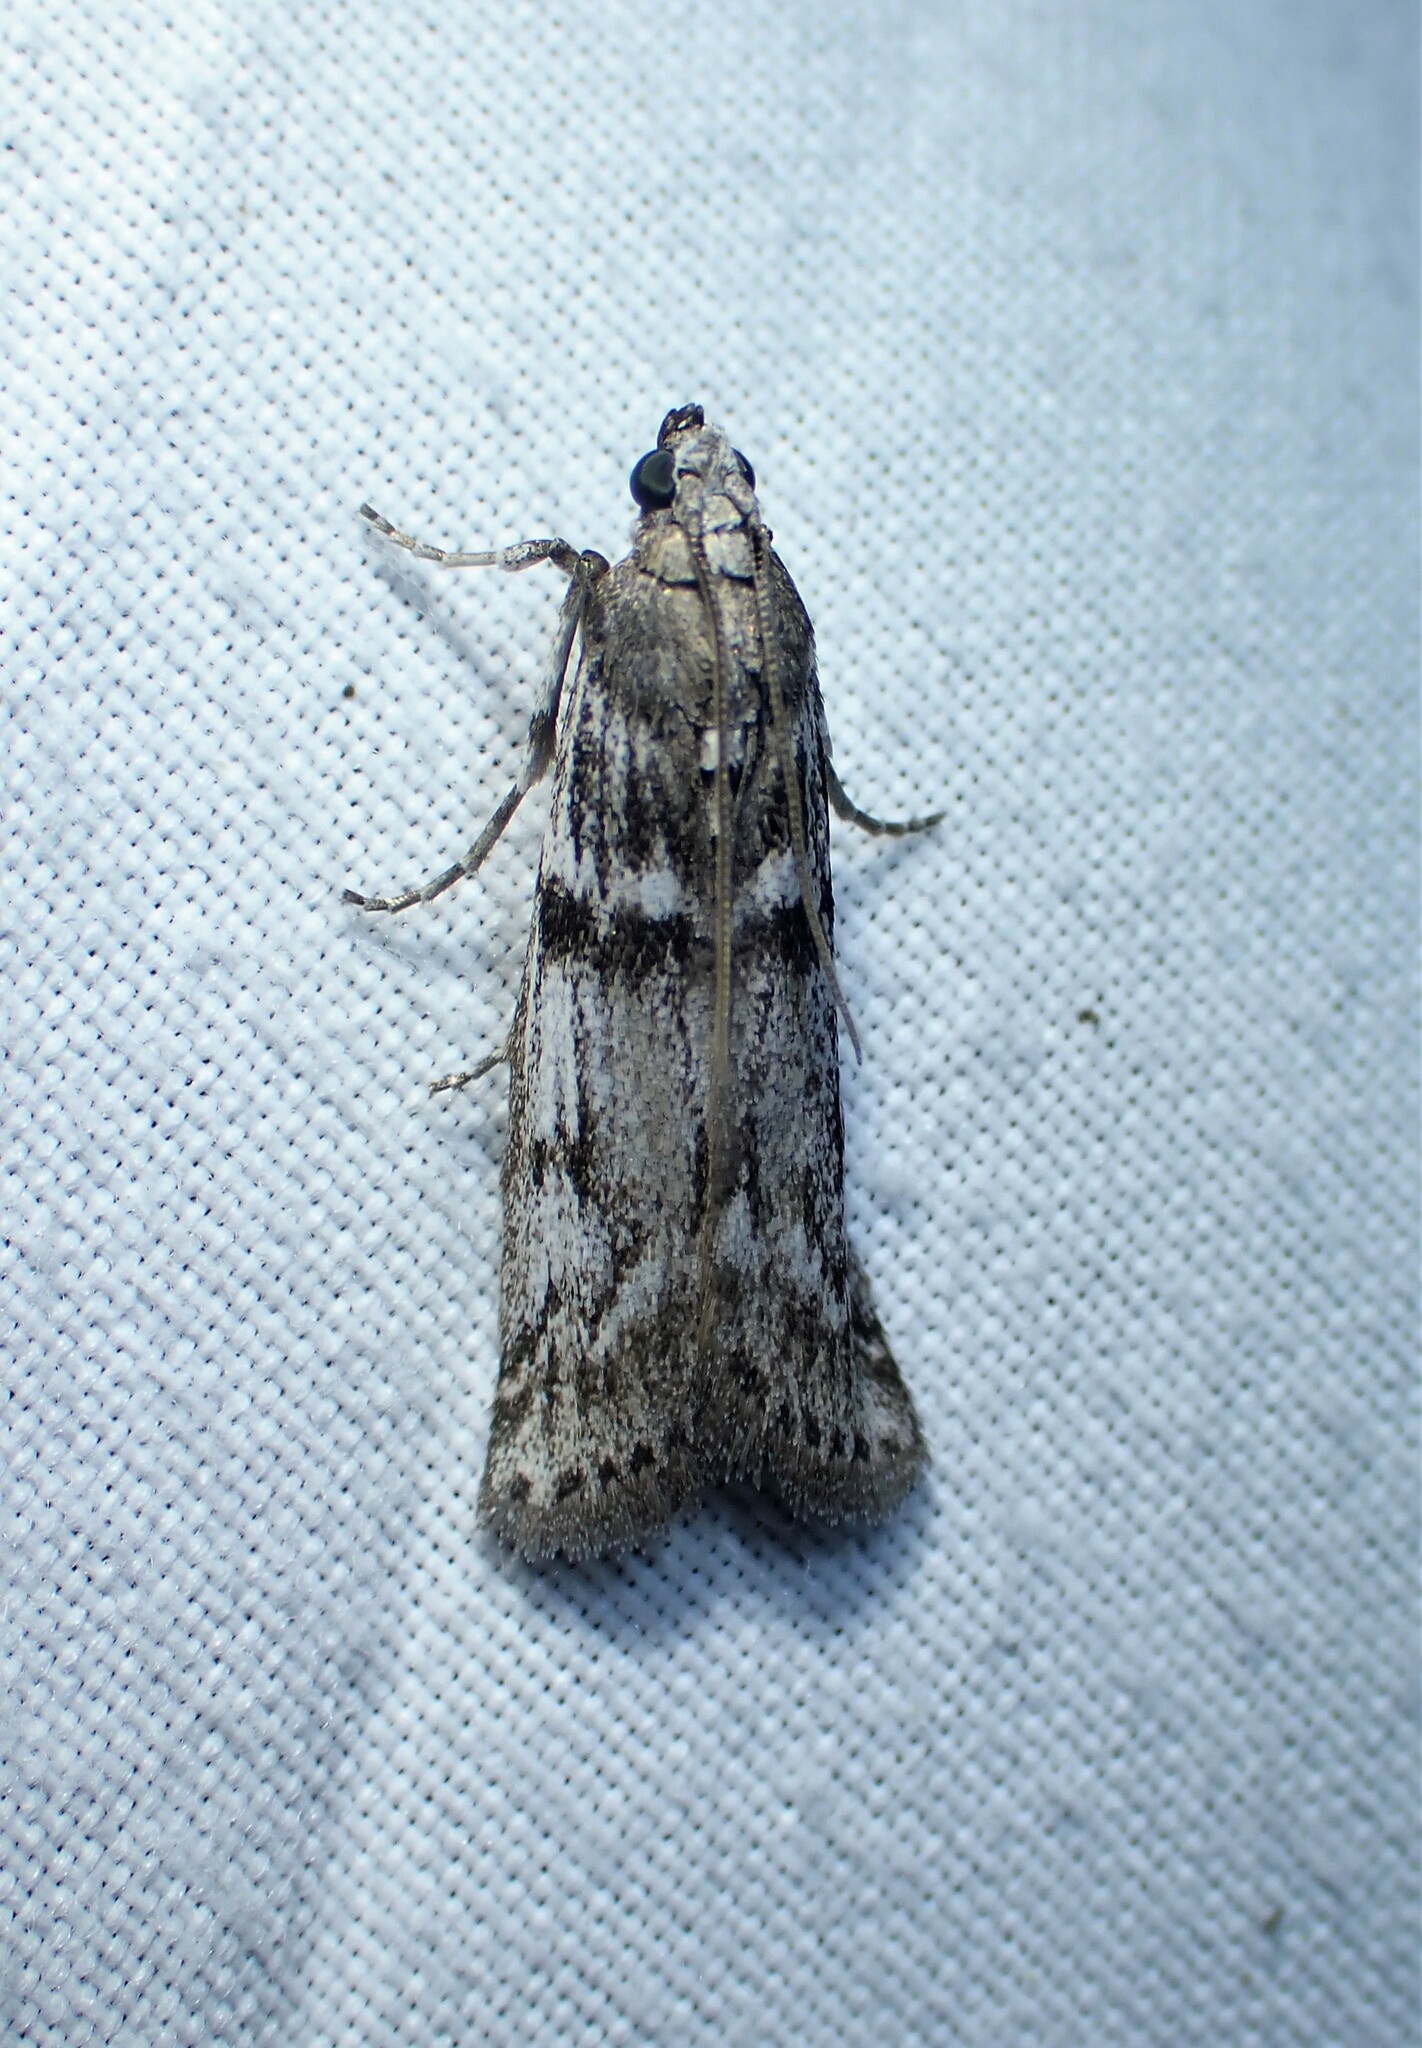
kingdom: Animalia
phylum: Arthropoda
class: Insecta
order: Lepidoptera
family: Pyralidae
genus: Zophodia
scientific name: Zophodia convolutella
